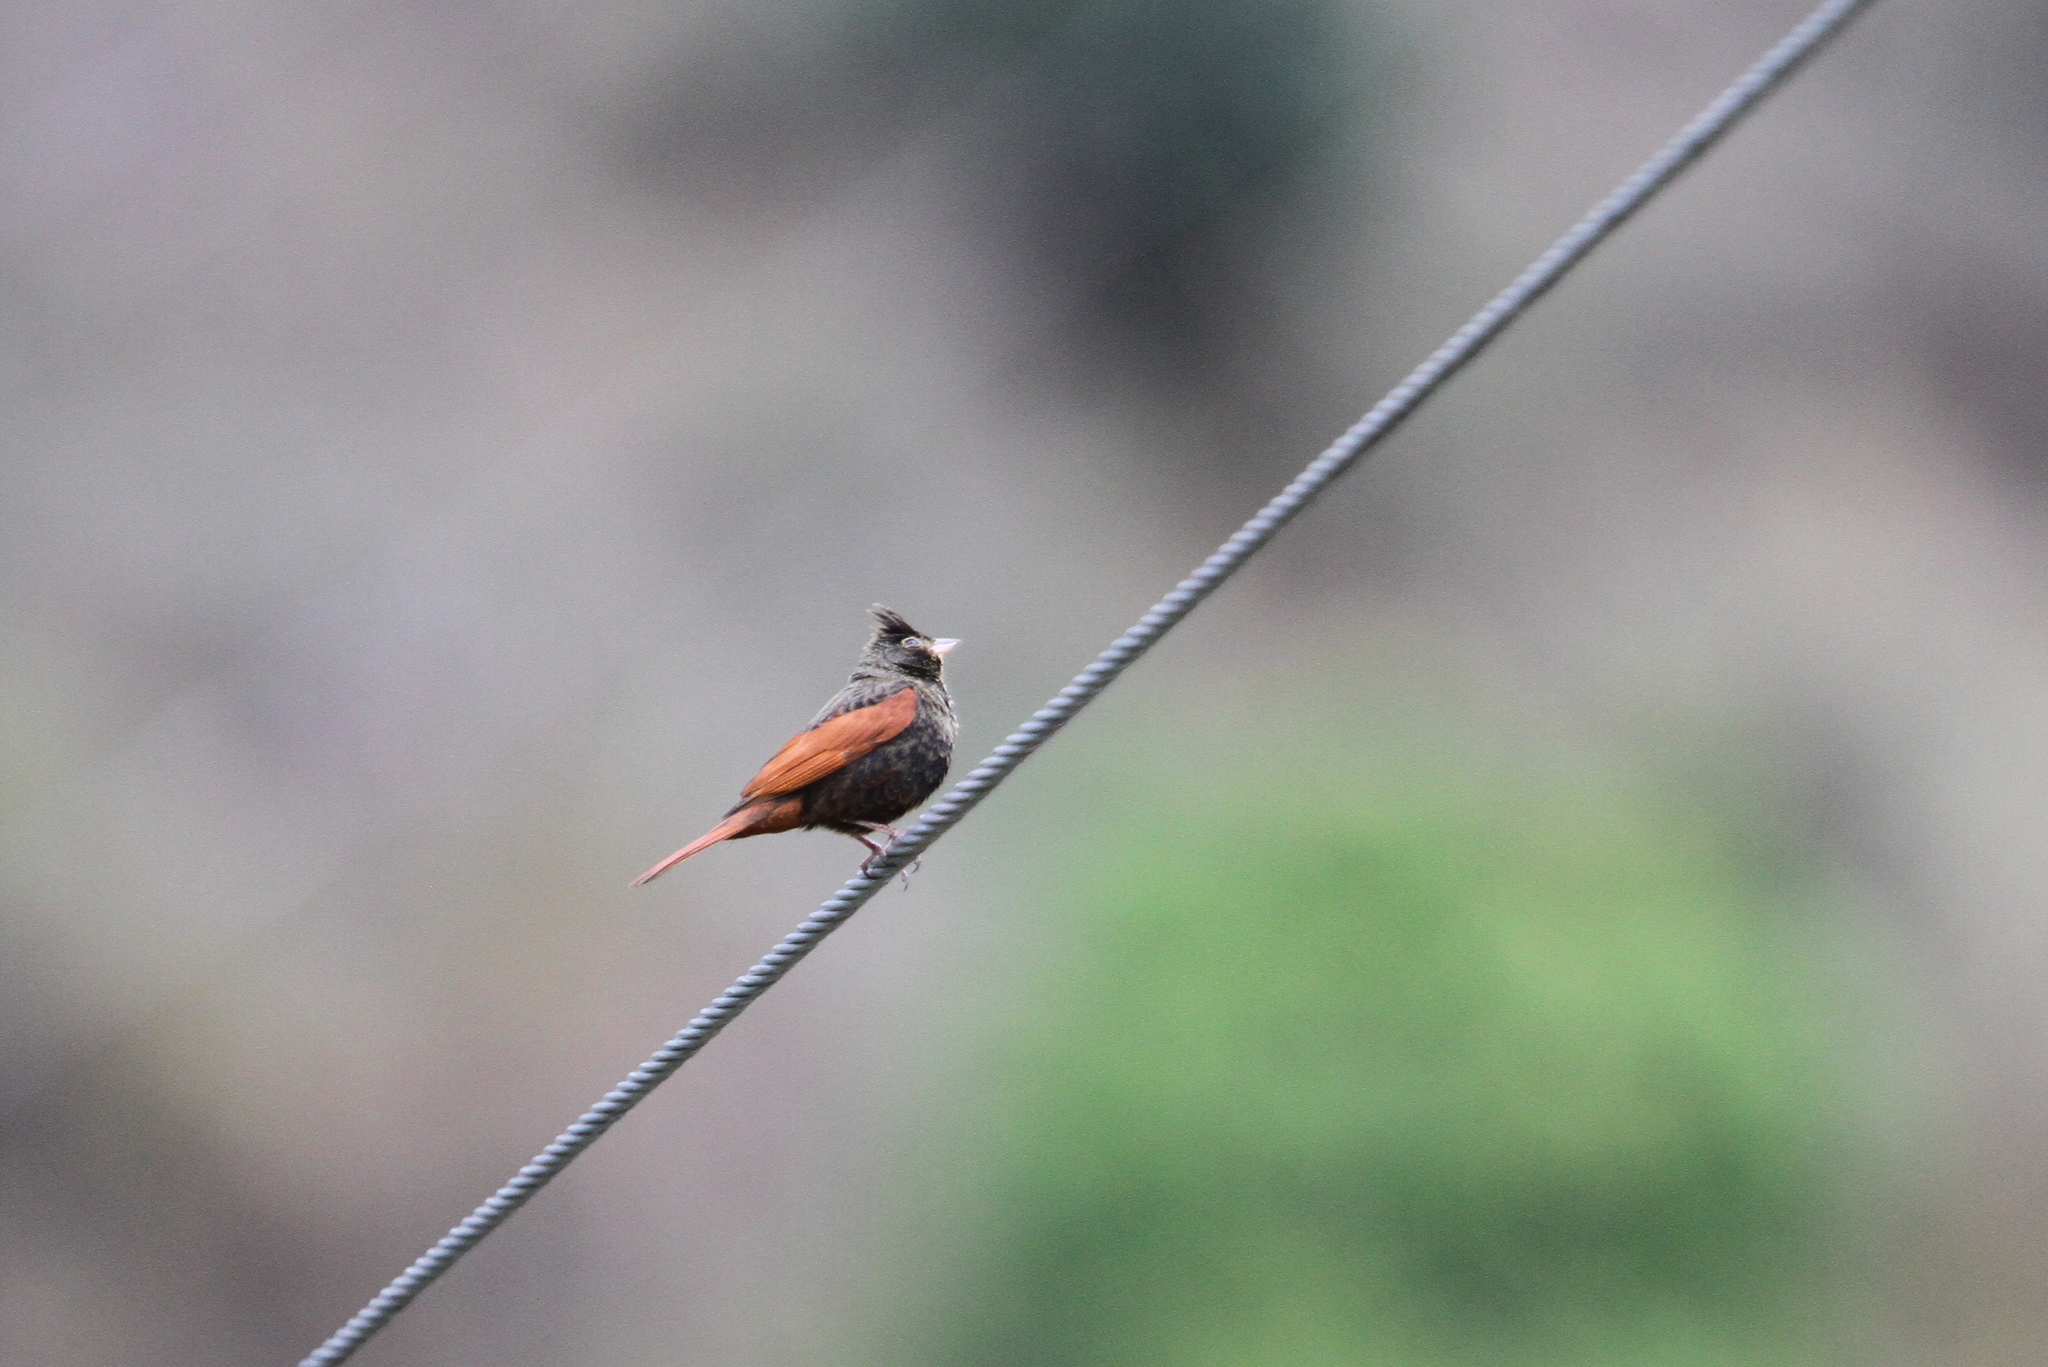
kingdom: Animalia
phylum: Chordata
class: Aves
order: Passeriformes
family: Emberizidae
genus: Emberiza
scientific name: Emberiza lathami
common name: Crested bunting
